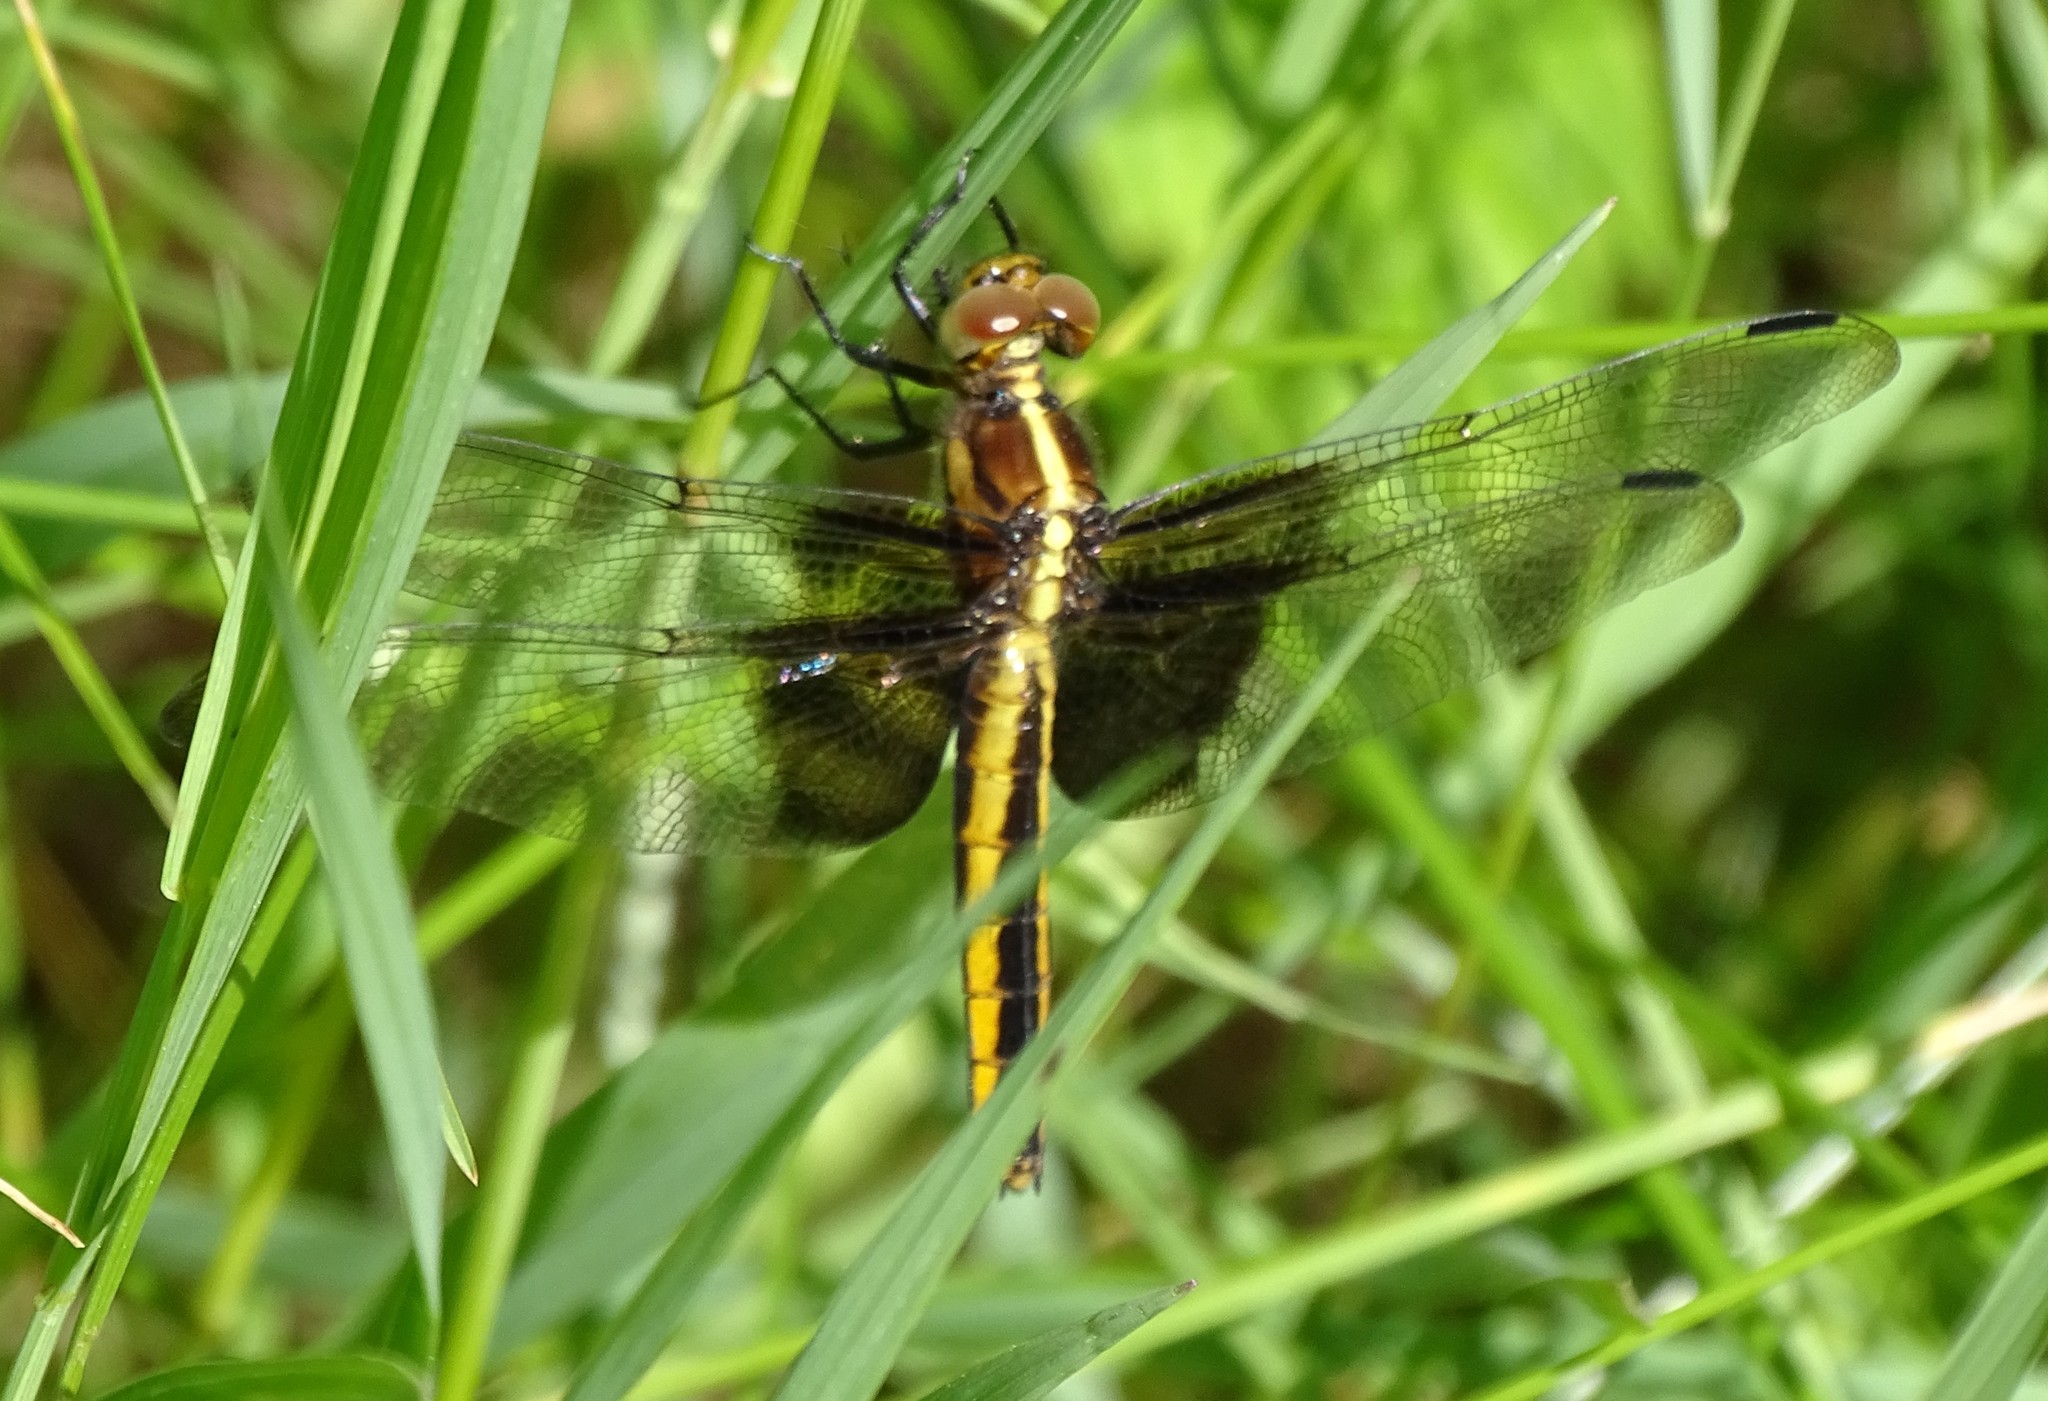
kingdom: Animalia
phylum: Arthropoda
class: Insecta
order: Odonata
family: Libellulidae
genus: Libellula
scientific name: Libellula luctuosa
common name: Widow skimmer
